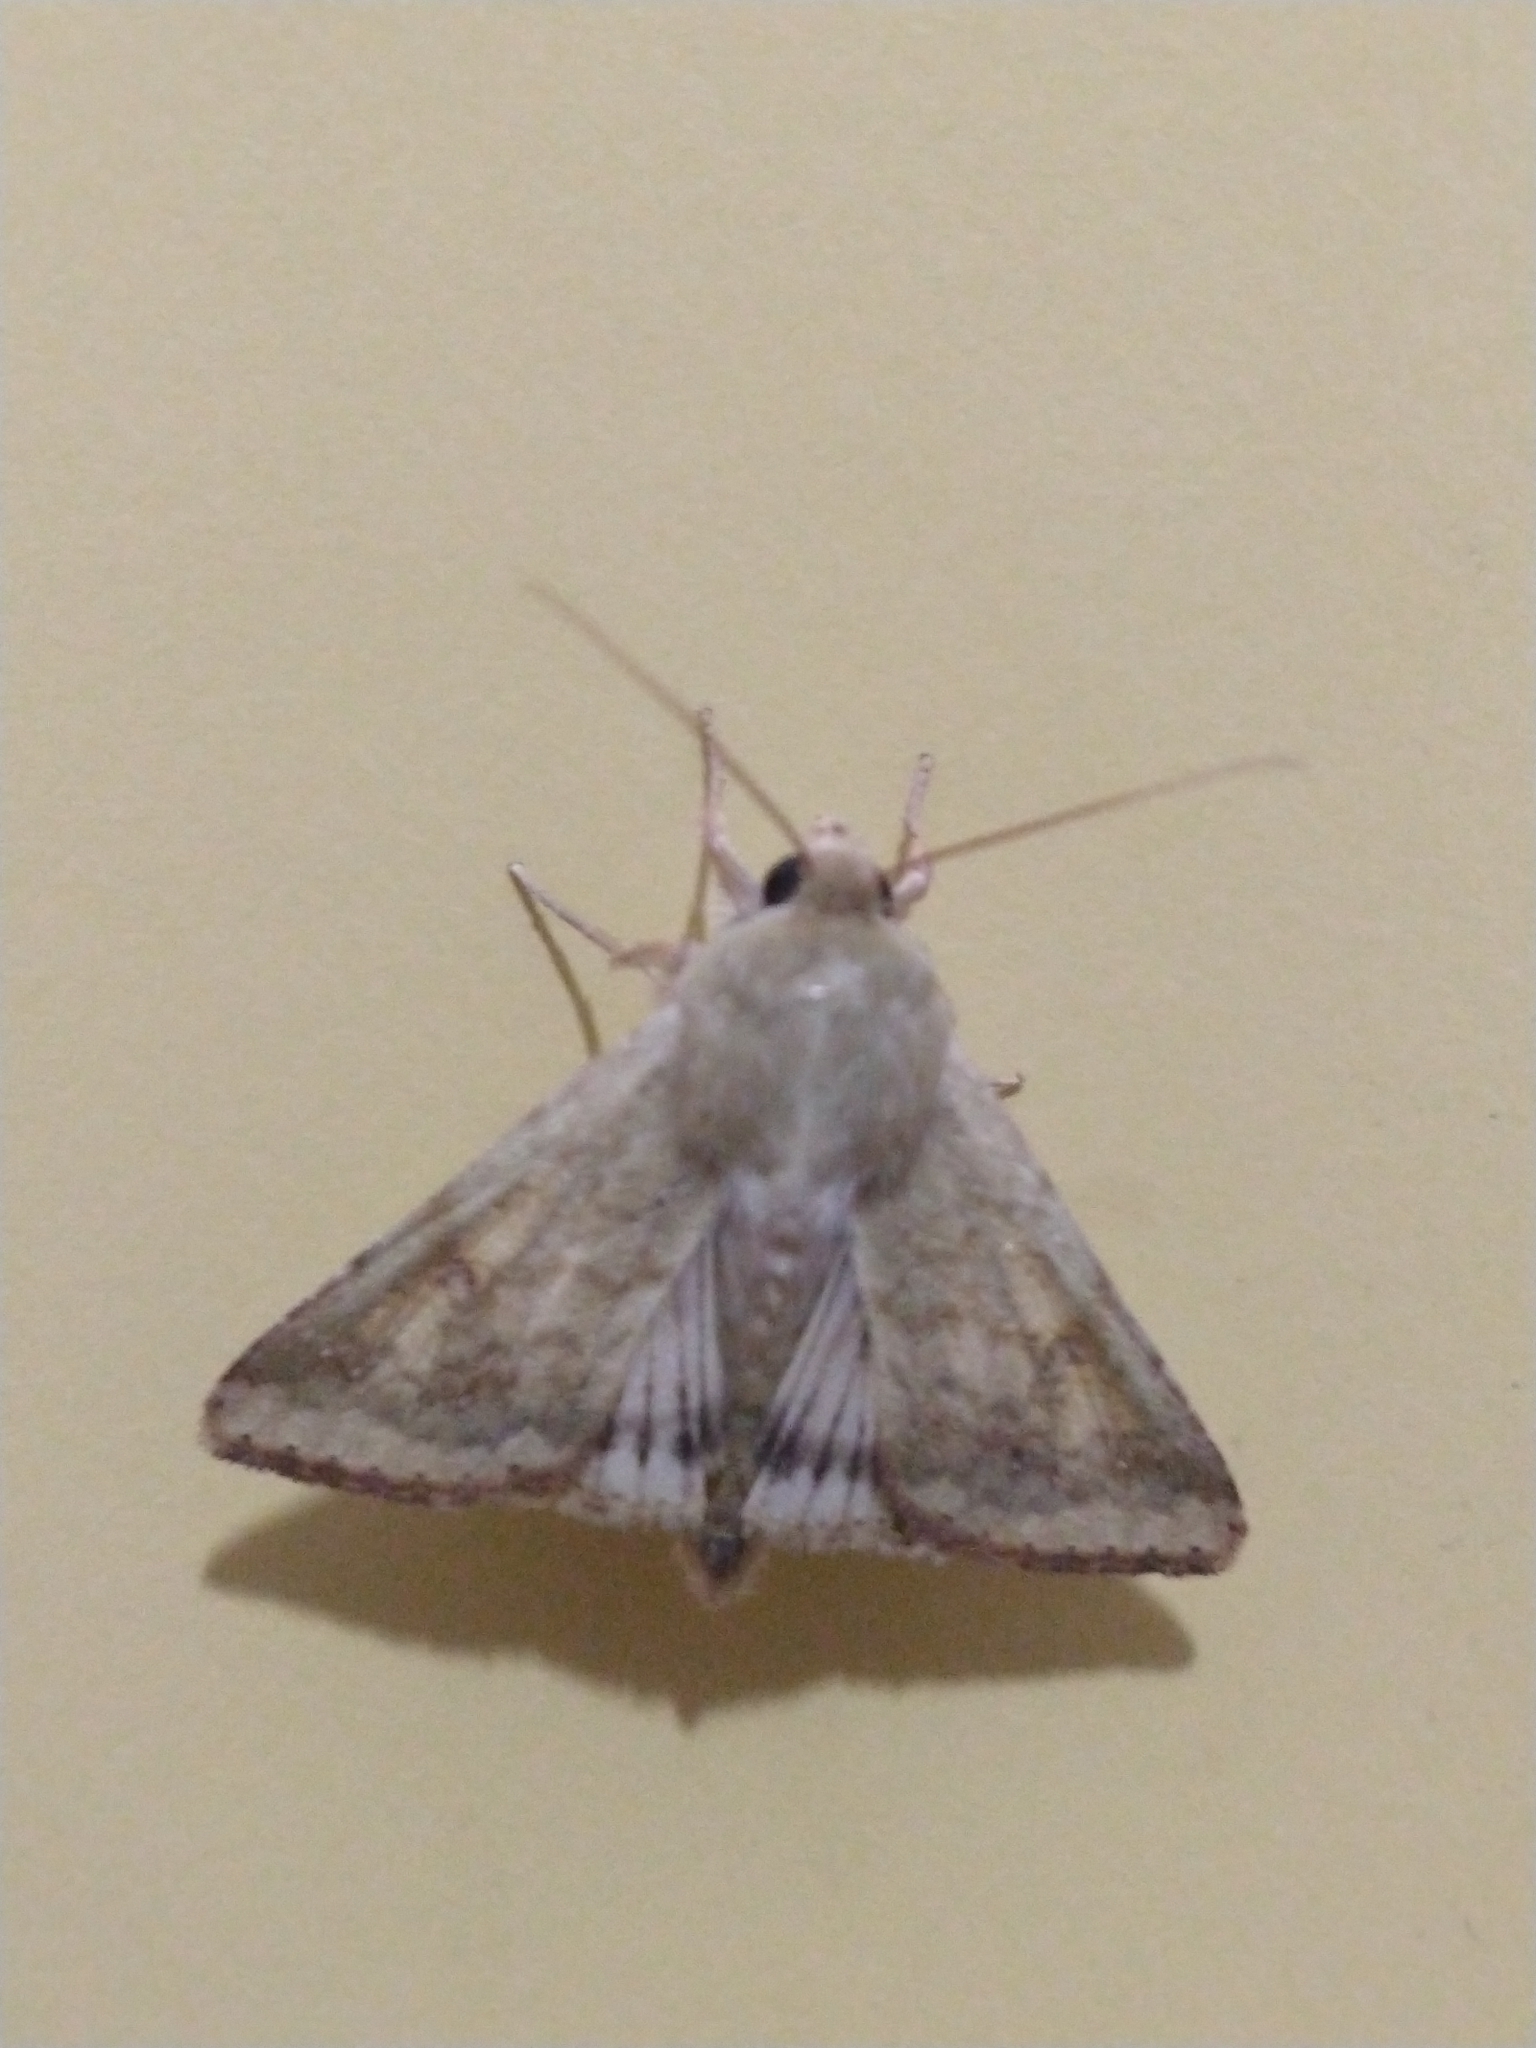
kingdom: Animalia
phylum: Arthropoda
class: Insecta
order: Lepidoptera
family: Noctuidae
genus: Helicoverpa
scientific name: Helicoverpa
